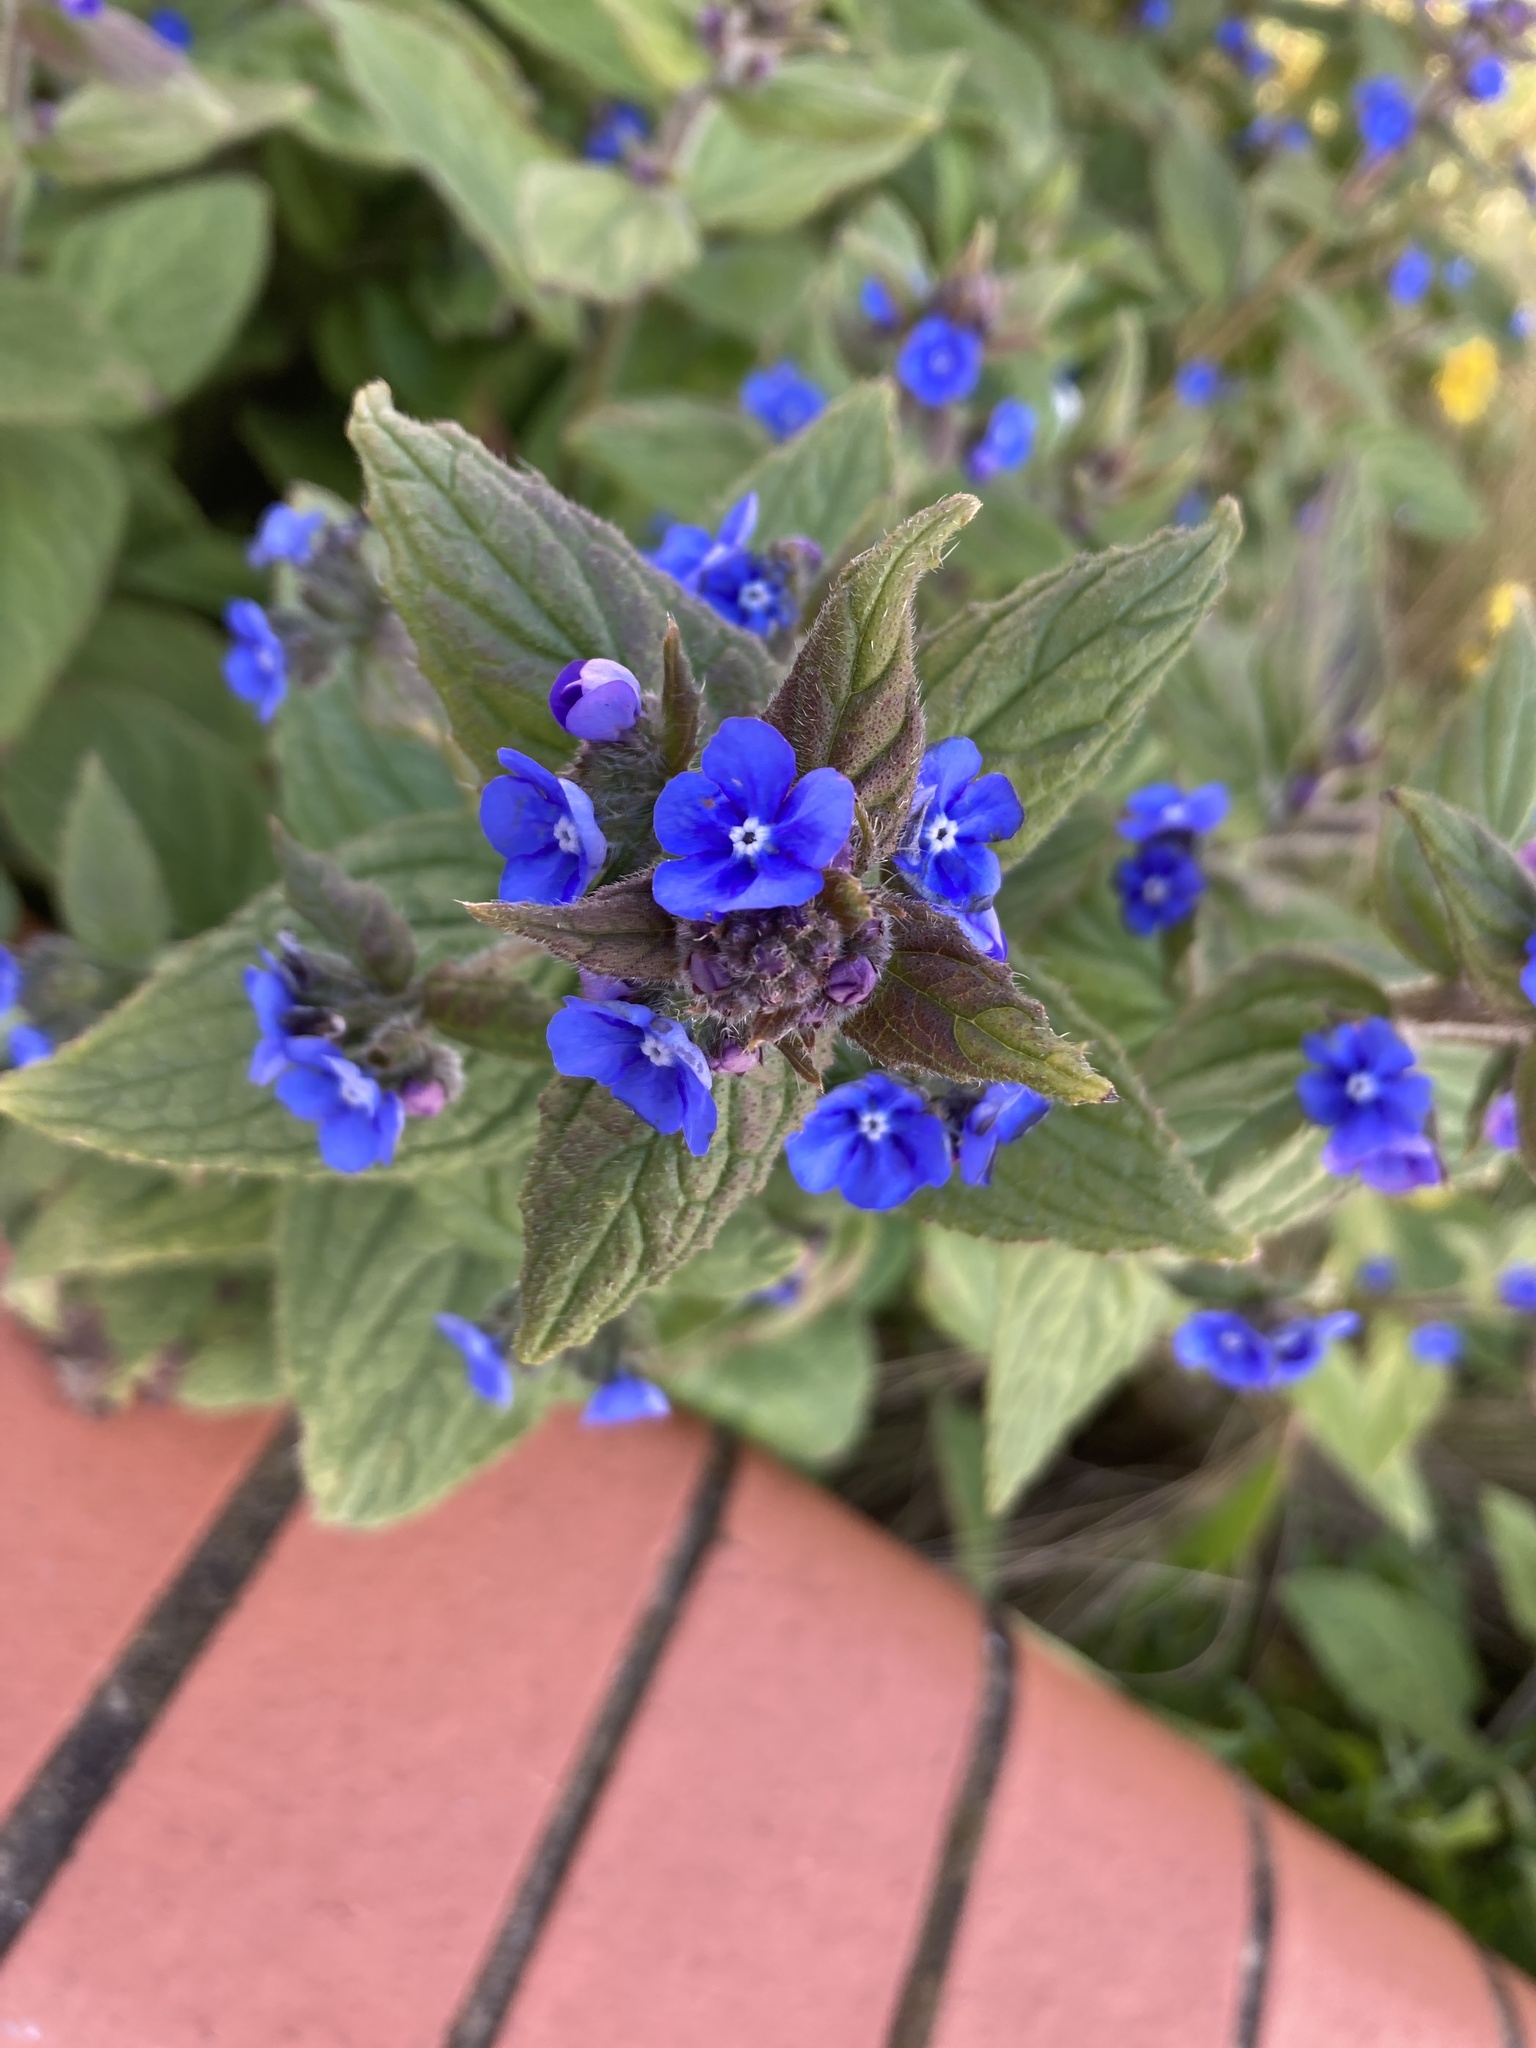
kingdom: Plantae
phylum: Tracheophyta
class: Magnoliopsida
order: Boraginales
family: Boraginaceae
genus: Pentaglottis
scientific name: Pentaglottis sempervirens
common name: Green alkanet
